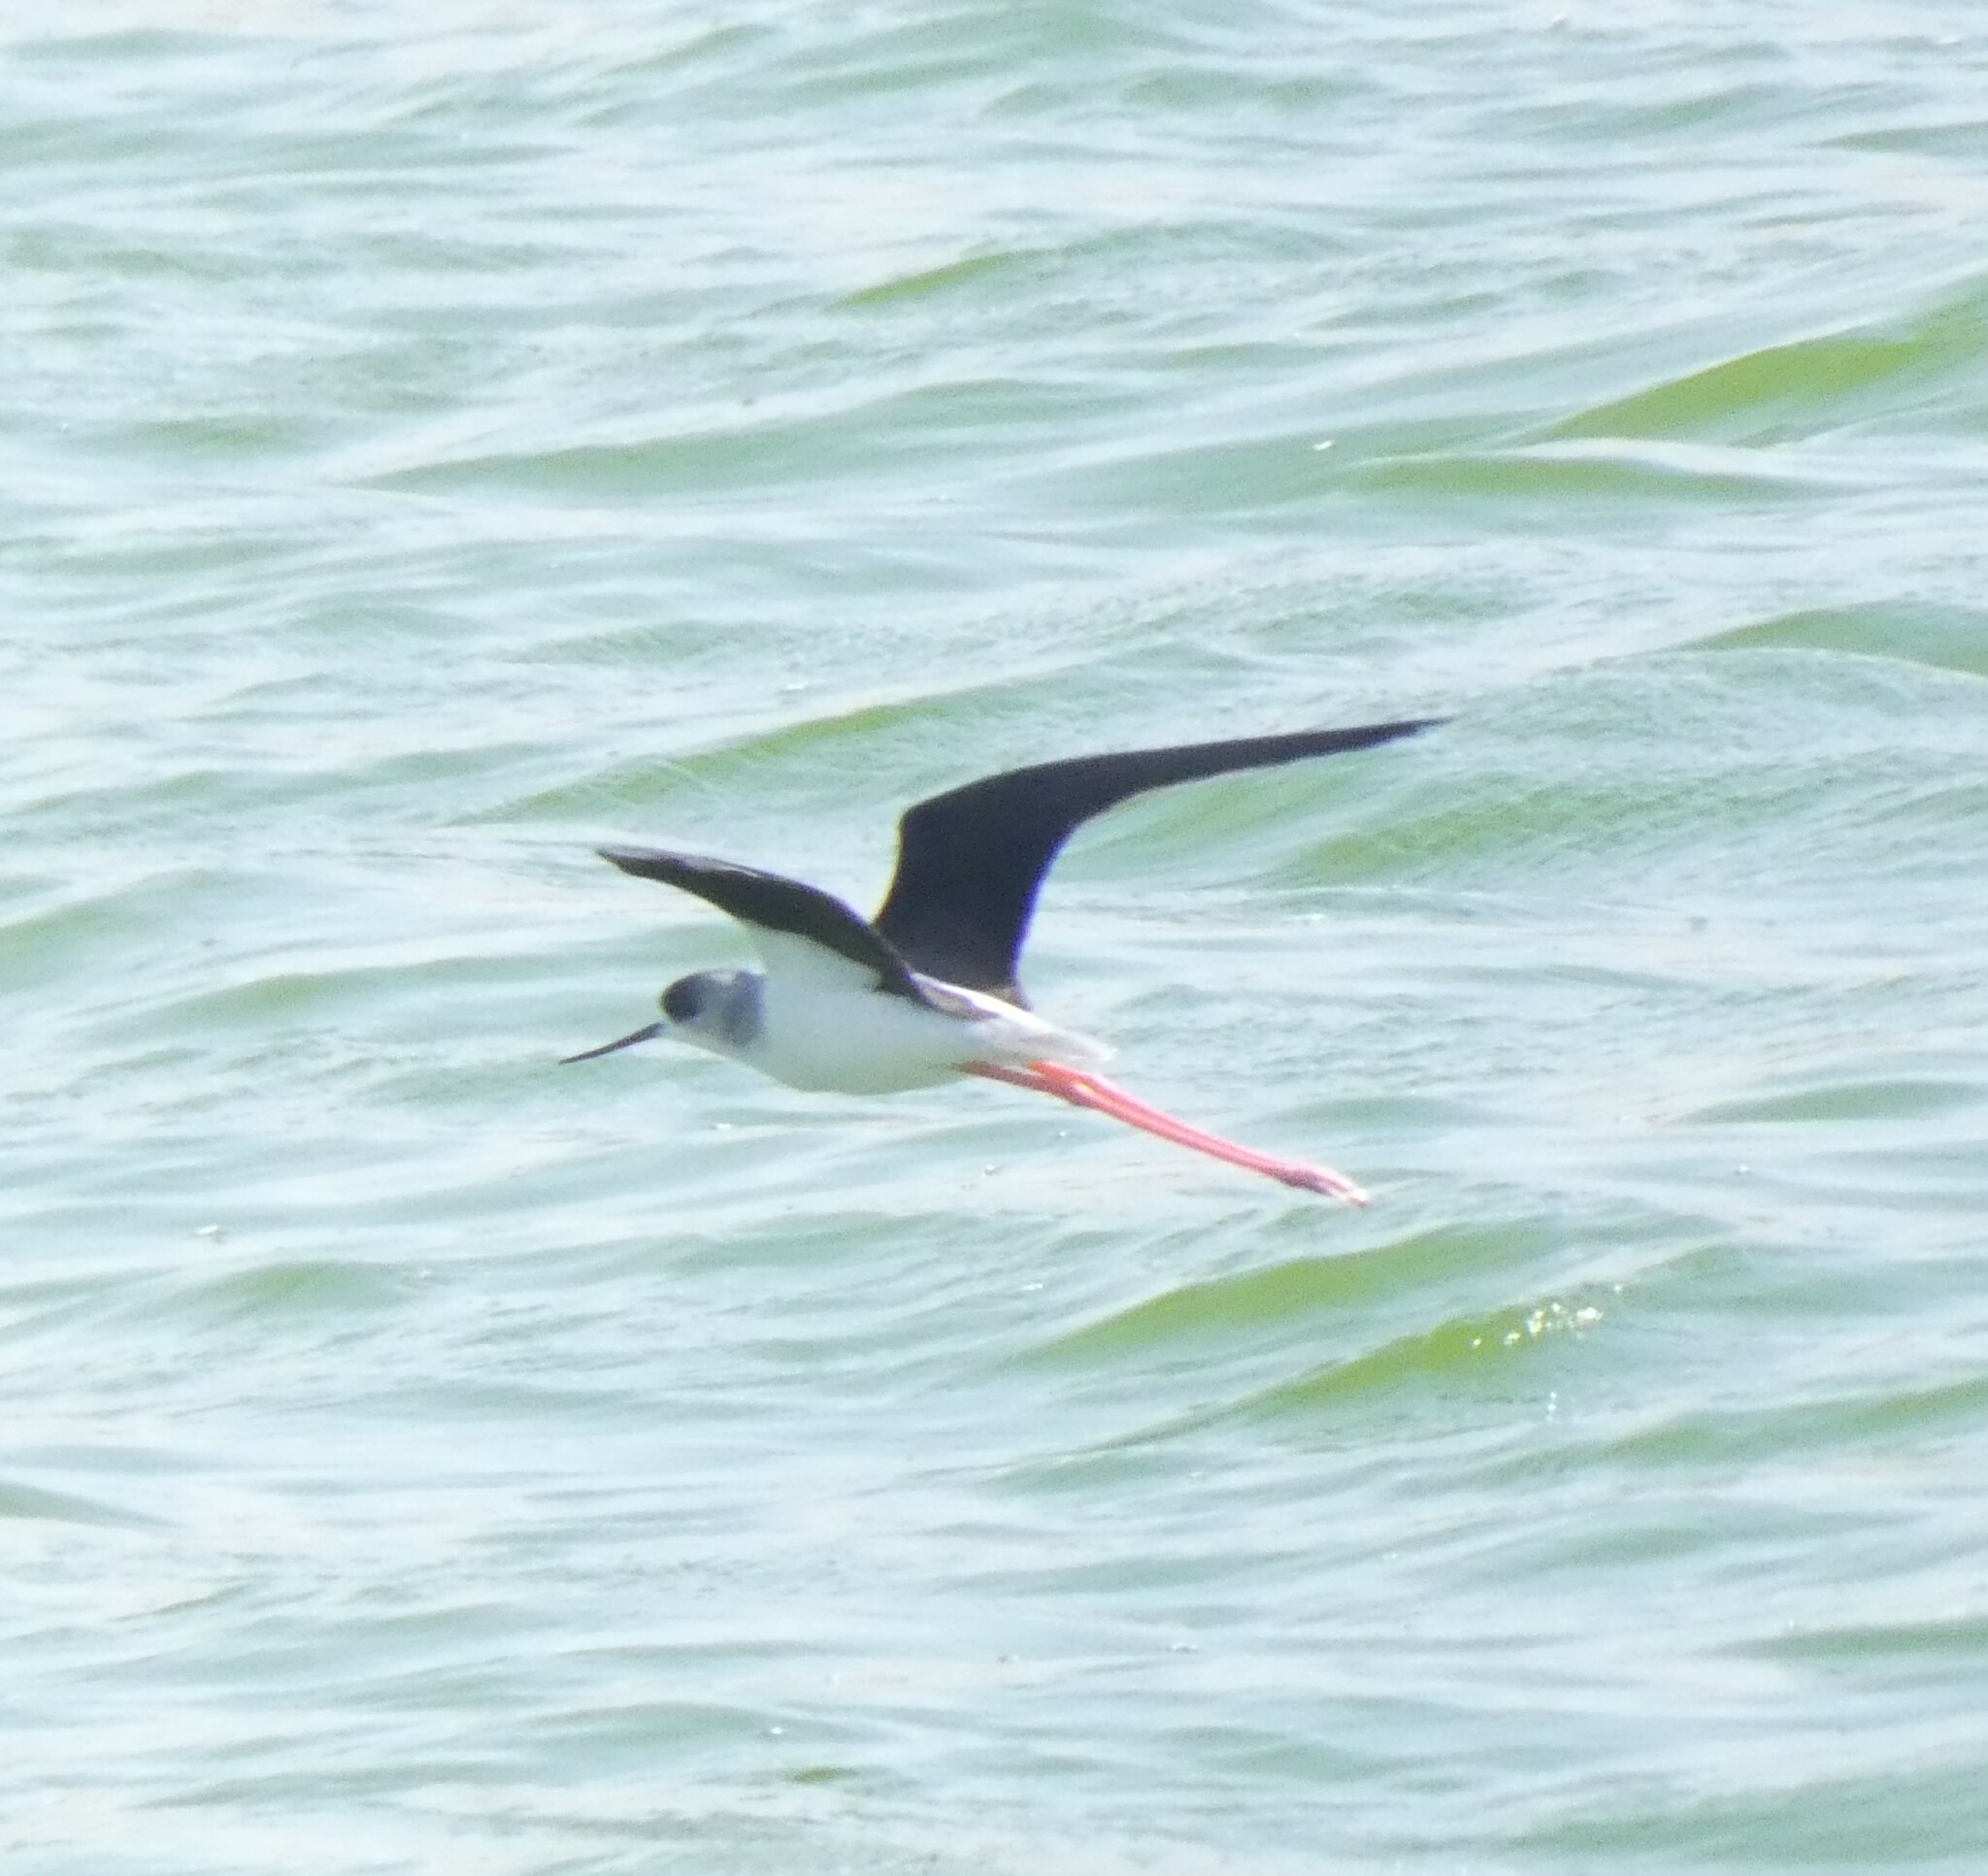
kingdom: Animalia
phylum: Chordata
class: Aves
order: Charadriiformes
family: Recurvirostridae
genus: Himantopus
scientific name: Himantopus himantopus
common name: Black-winged stilt
